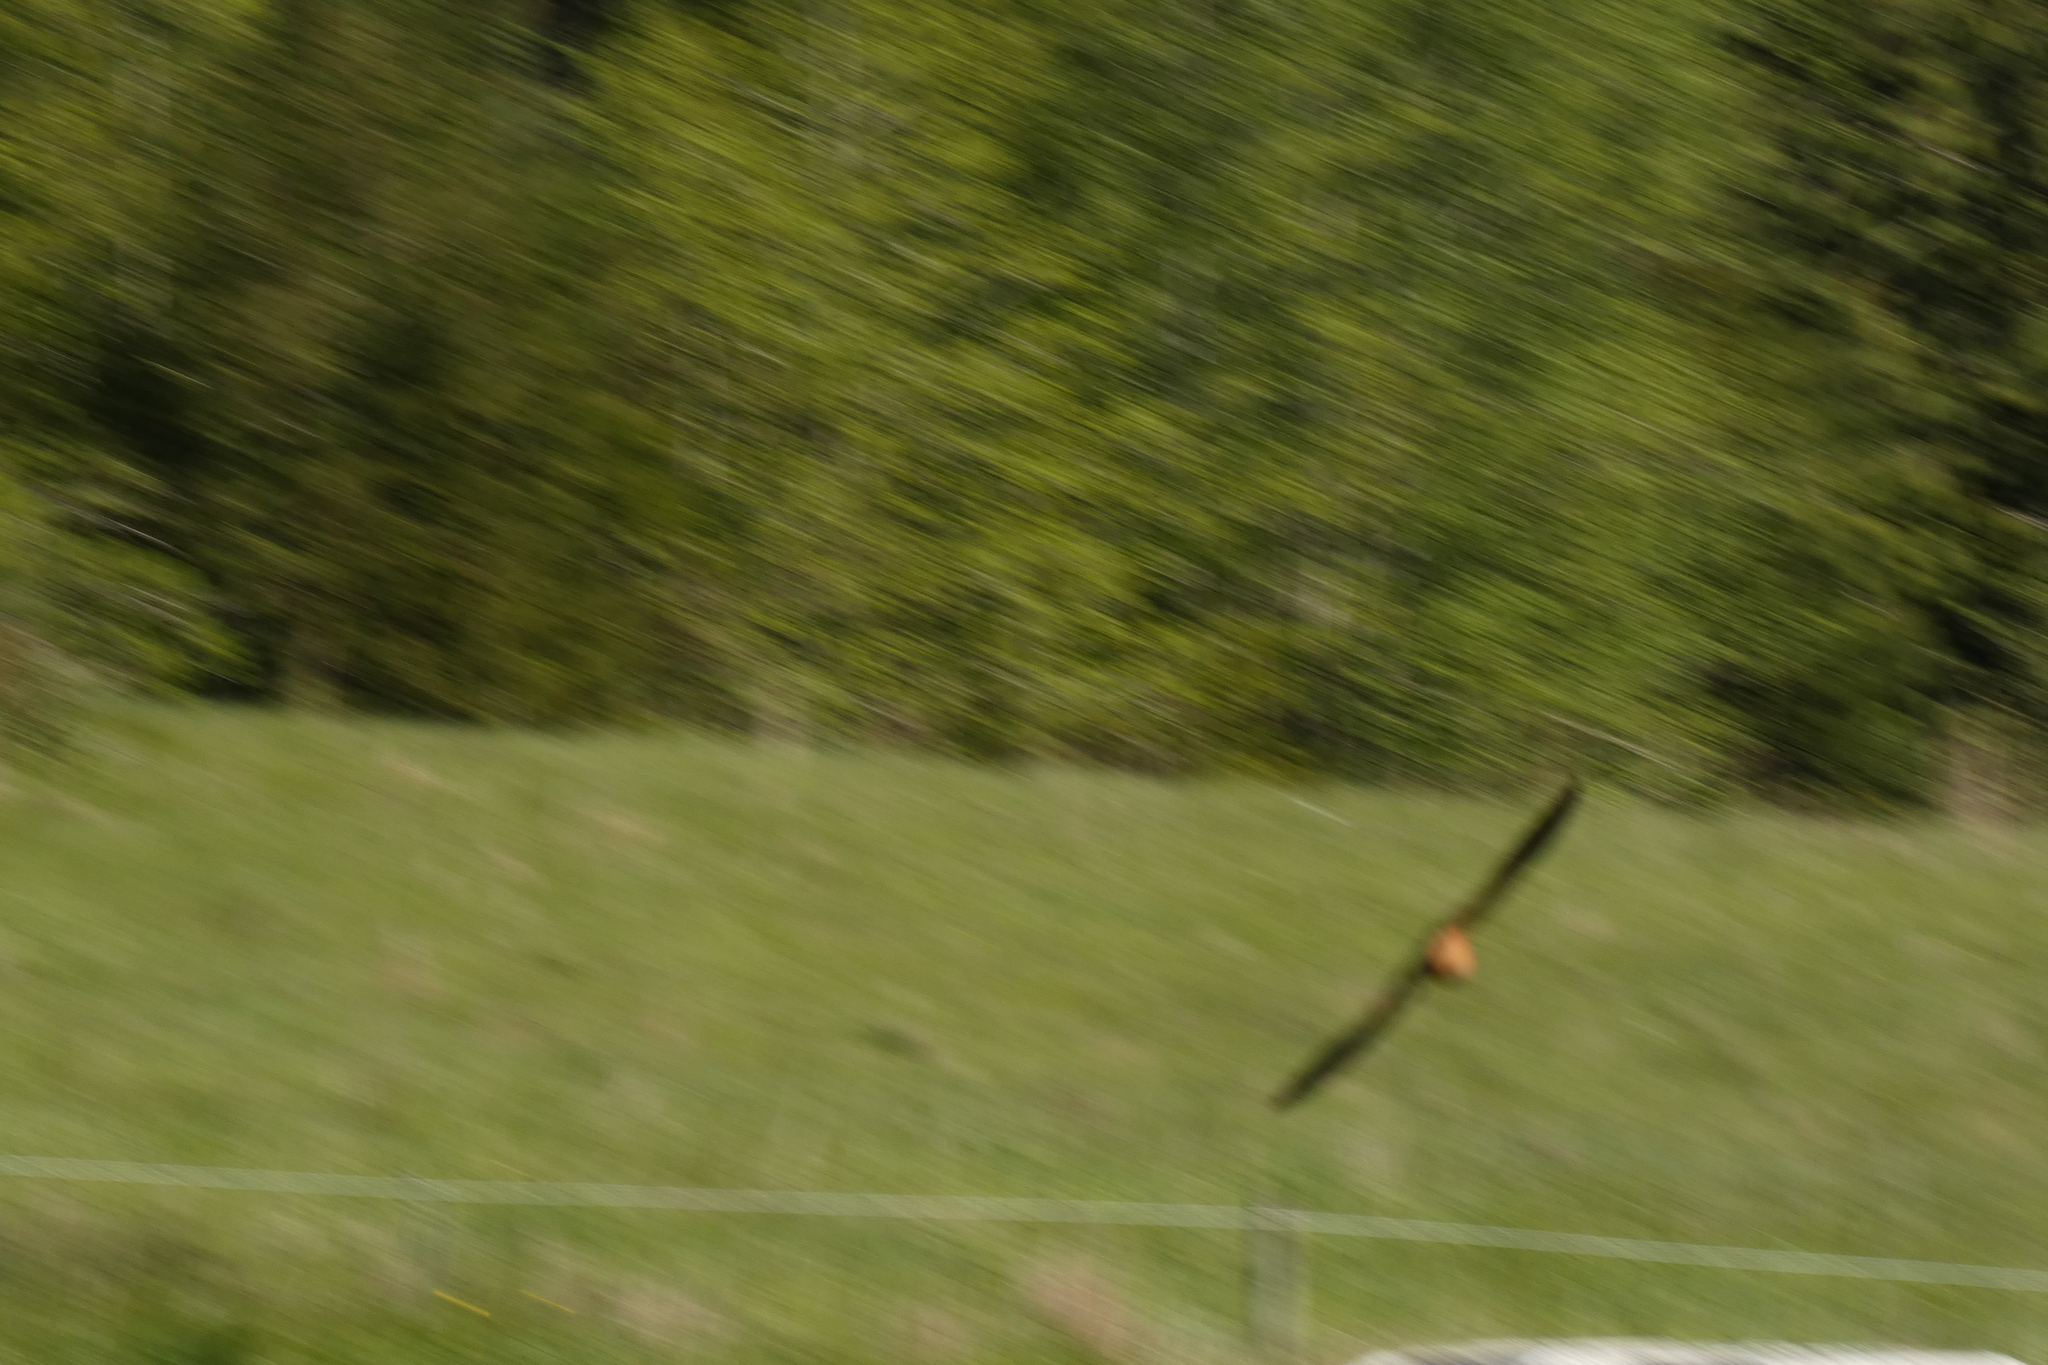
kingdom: Animalia
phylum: Chordata
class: Aves
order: Passeriformes
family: Hirundinidae
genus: Hirundo
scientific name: Hirundo rustica
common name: Barn swallow
